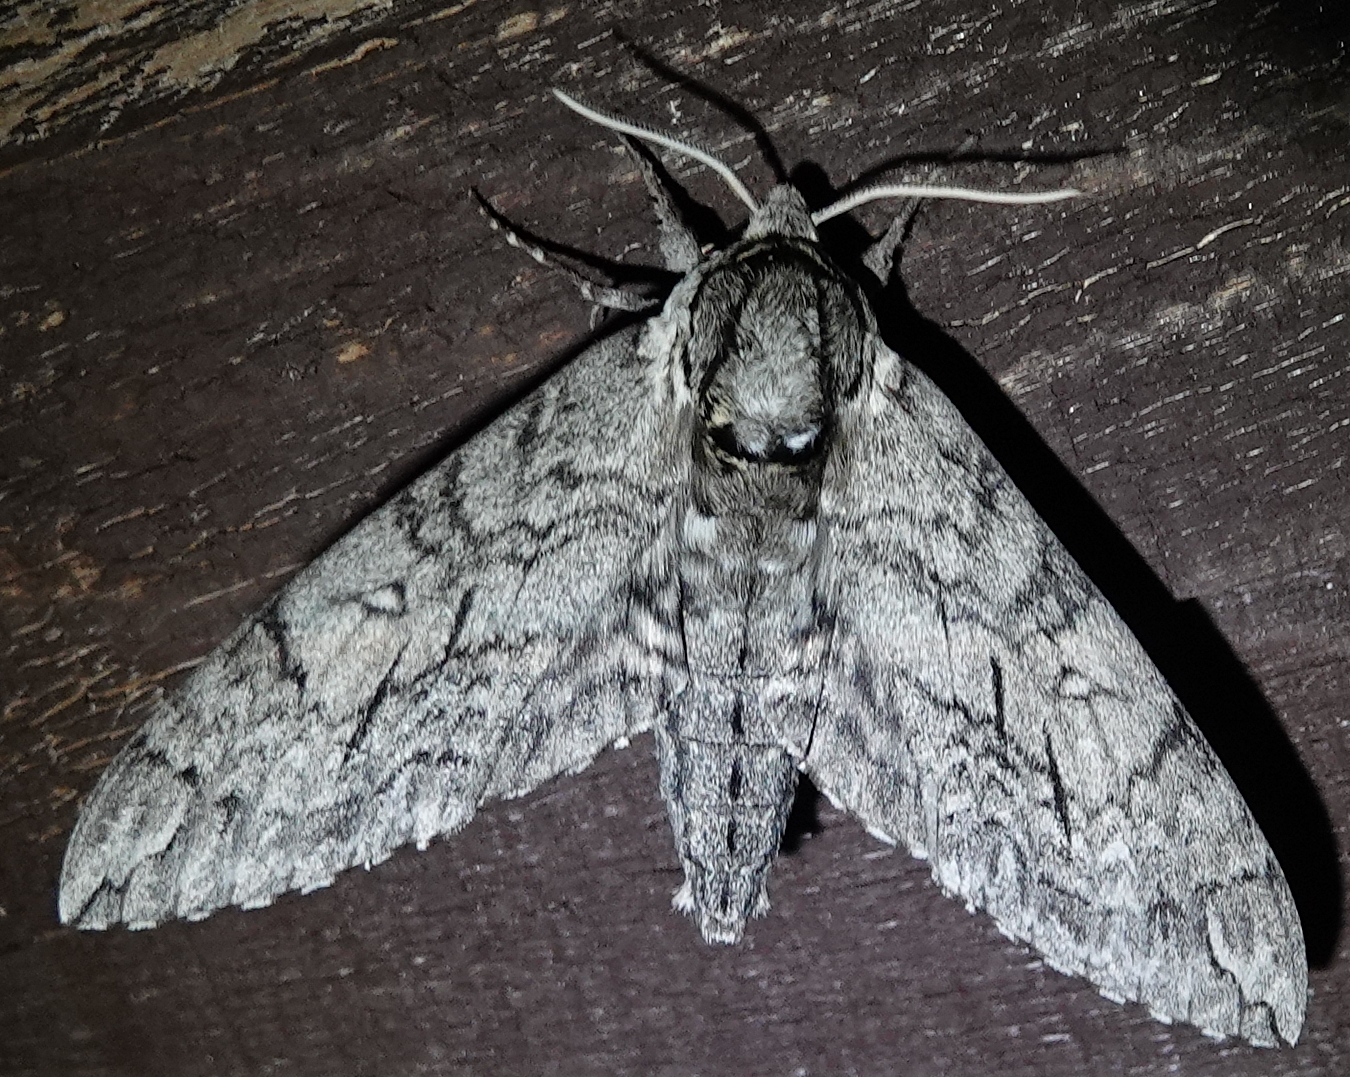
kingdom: Animalia
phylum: Arthropoda
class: Insecta
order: Lepidoptera
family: Sphingidae
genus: Ceratomia
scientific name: Ceratomia undulosa
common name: Waved sphinx
